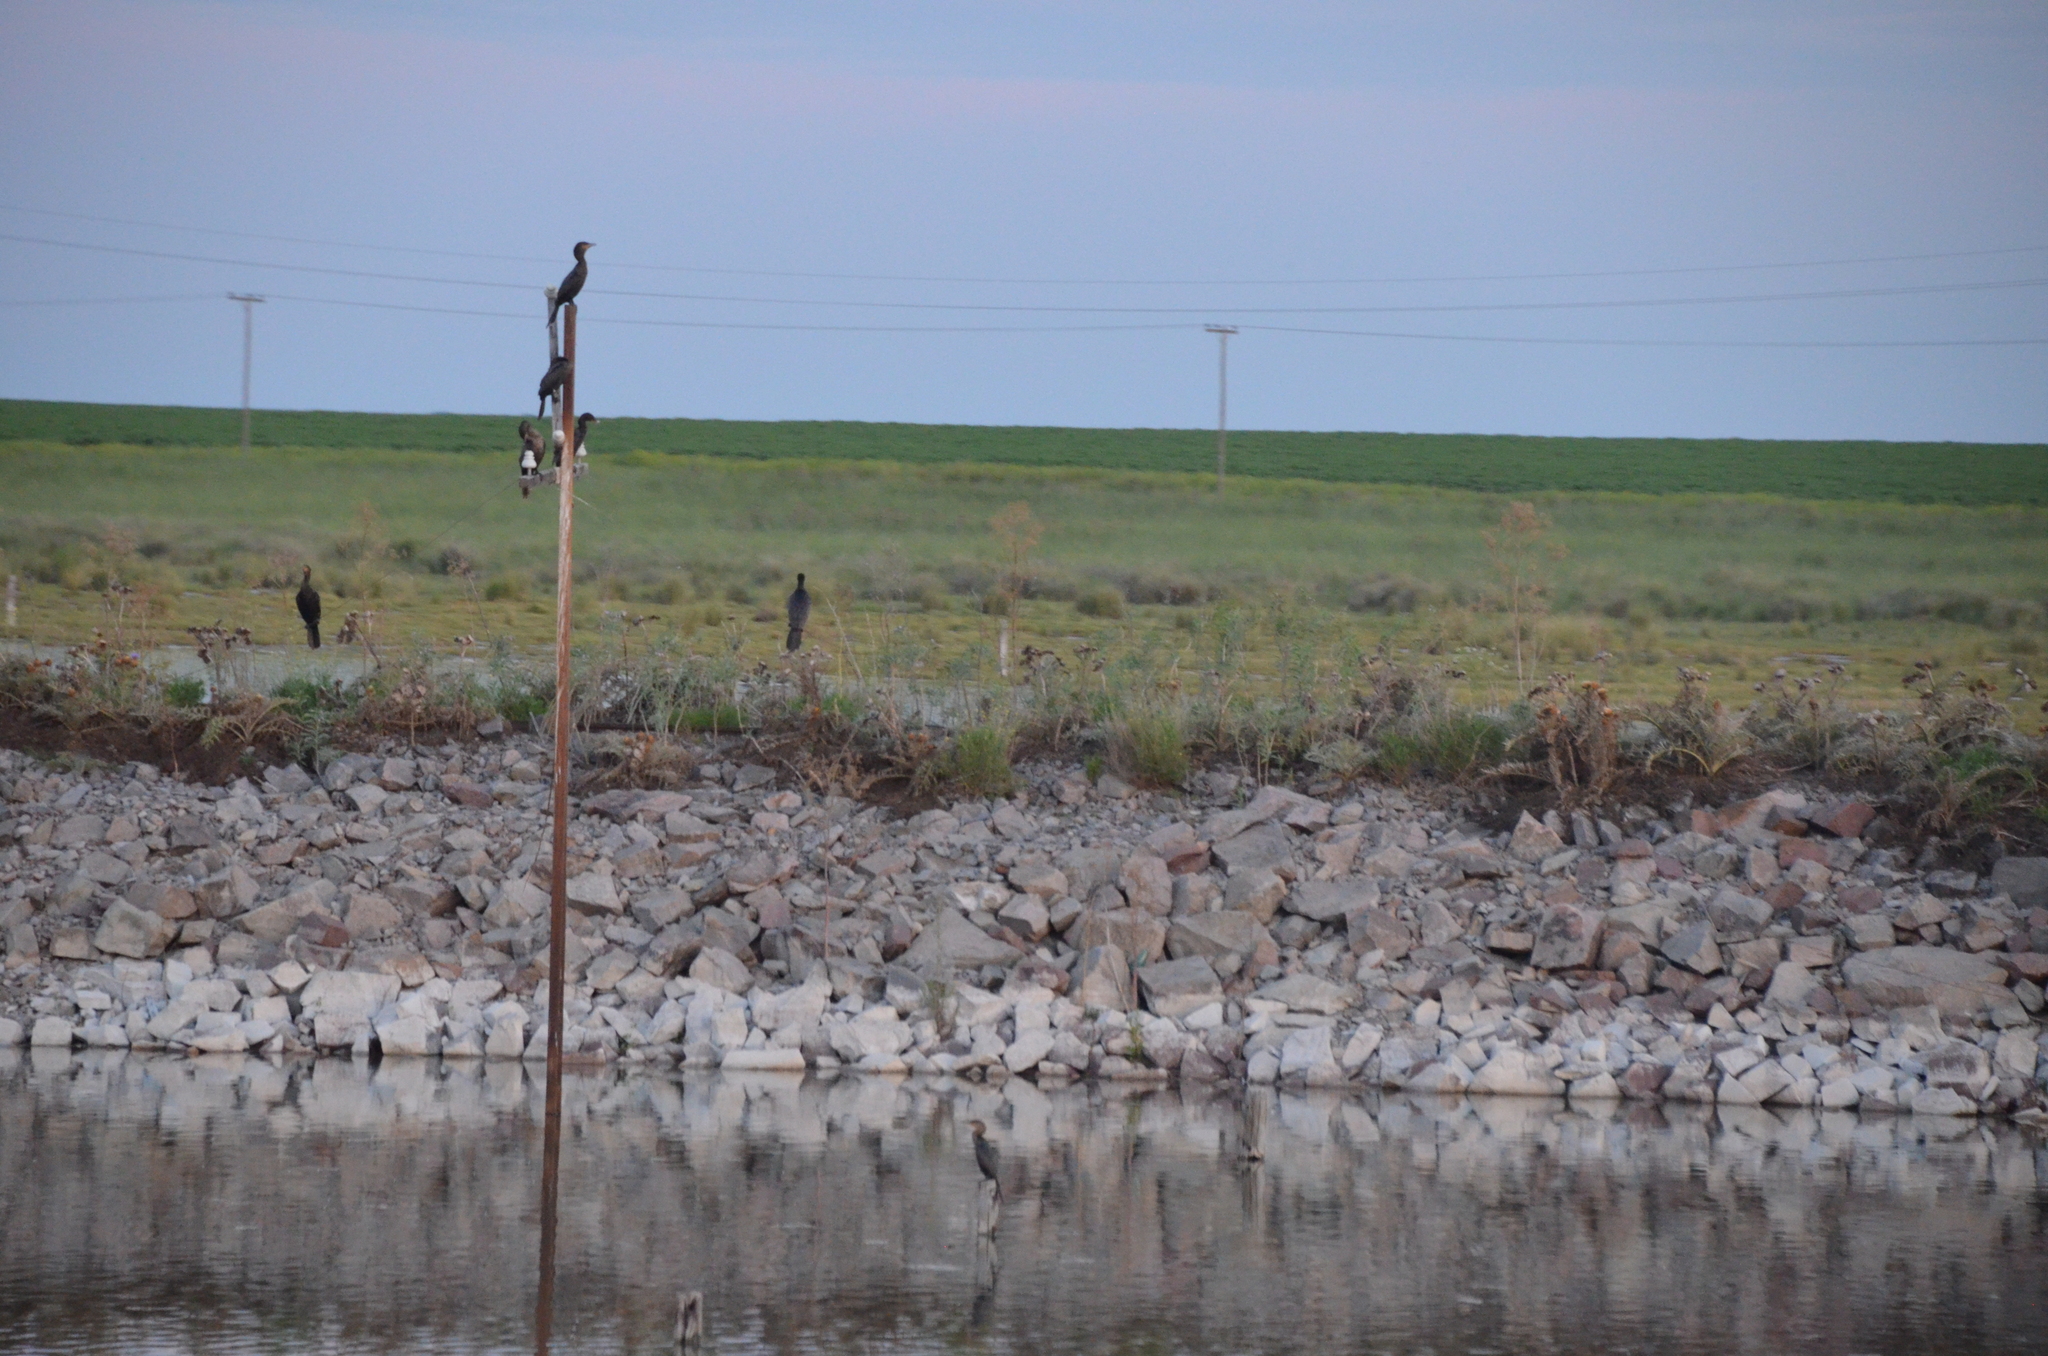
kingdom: Animalia
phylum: Chordata
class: Aves
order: Suliformes
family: Phalacrocoracidae
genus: Phalacrocorax
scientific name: Phalacrocorax brasilianus
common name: Neotropic cormorant
